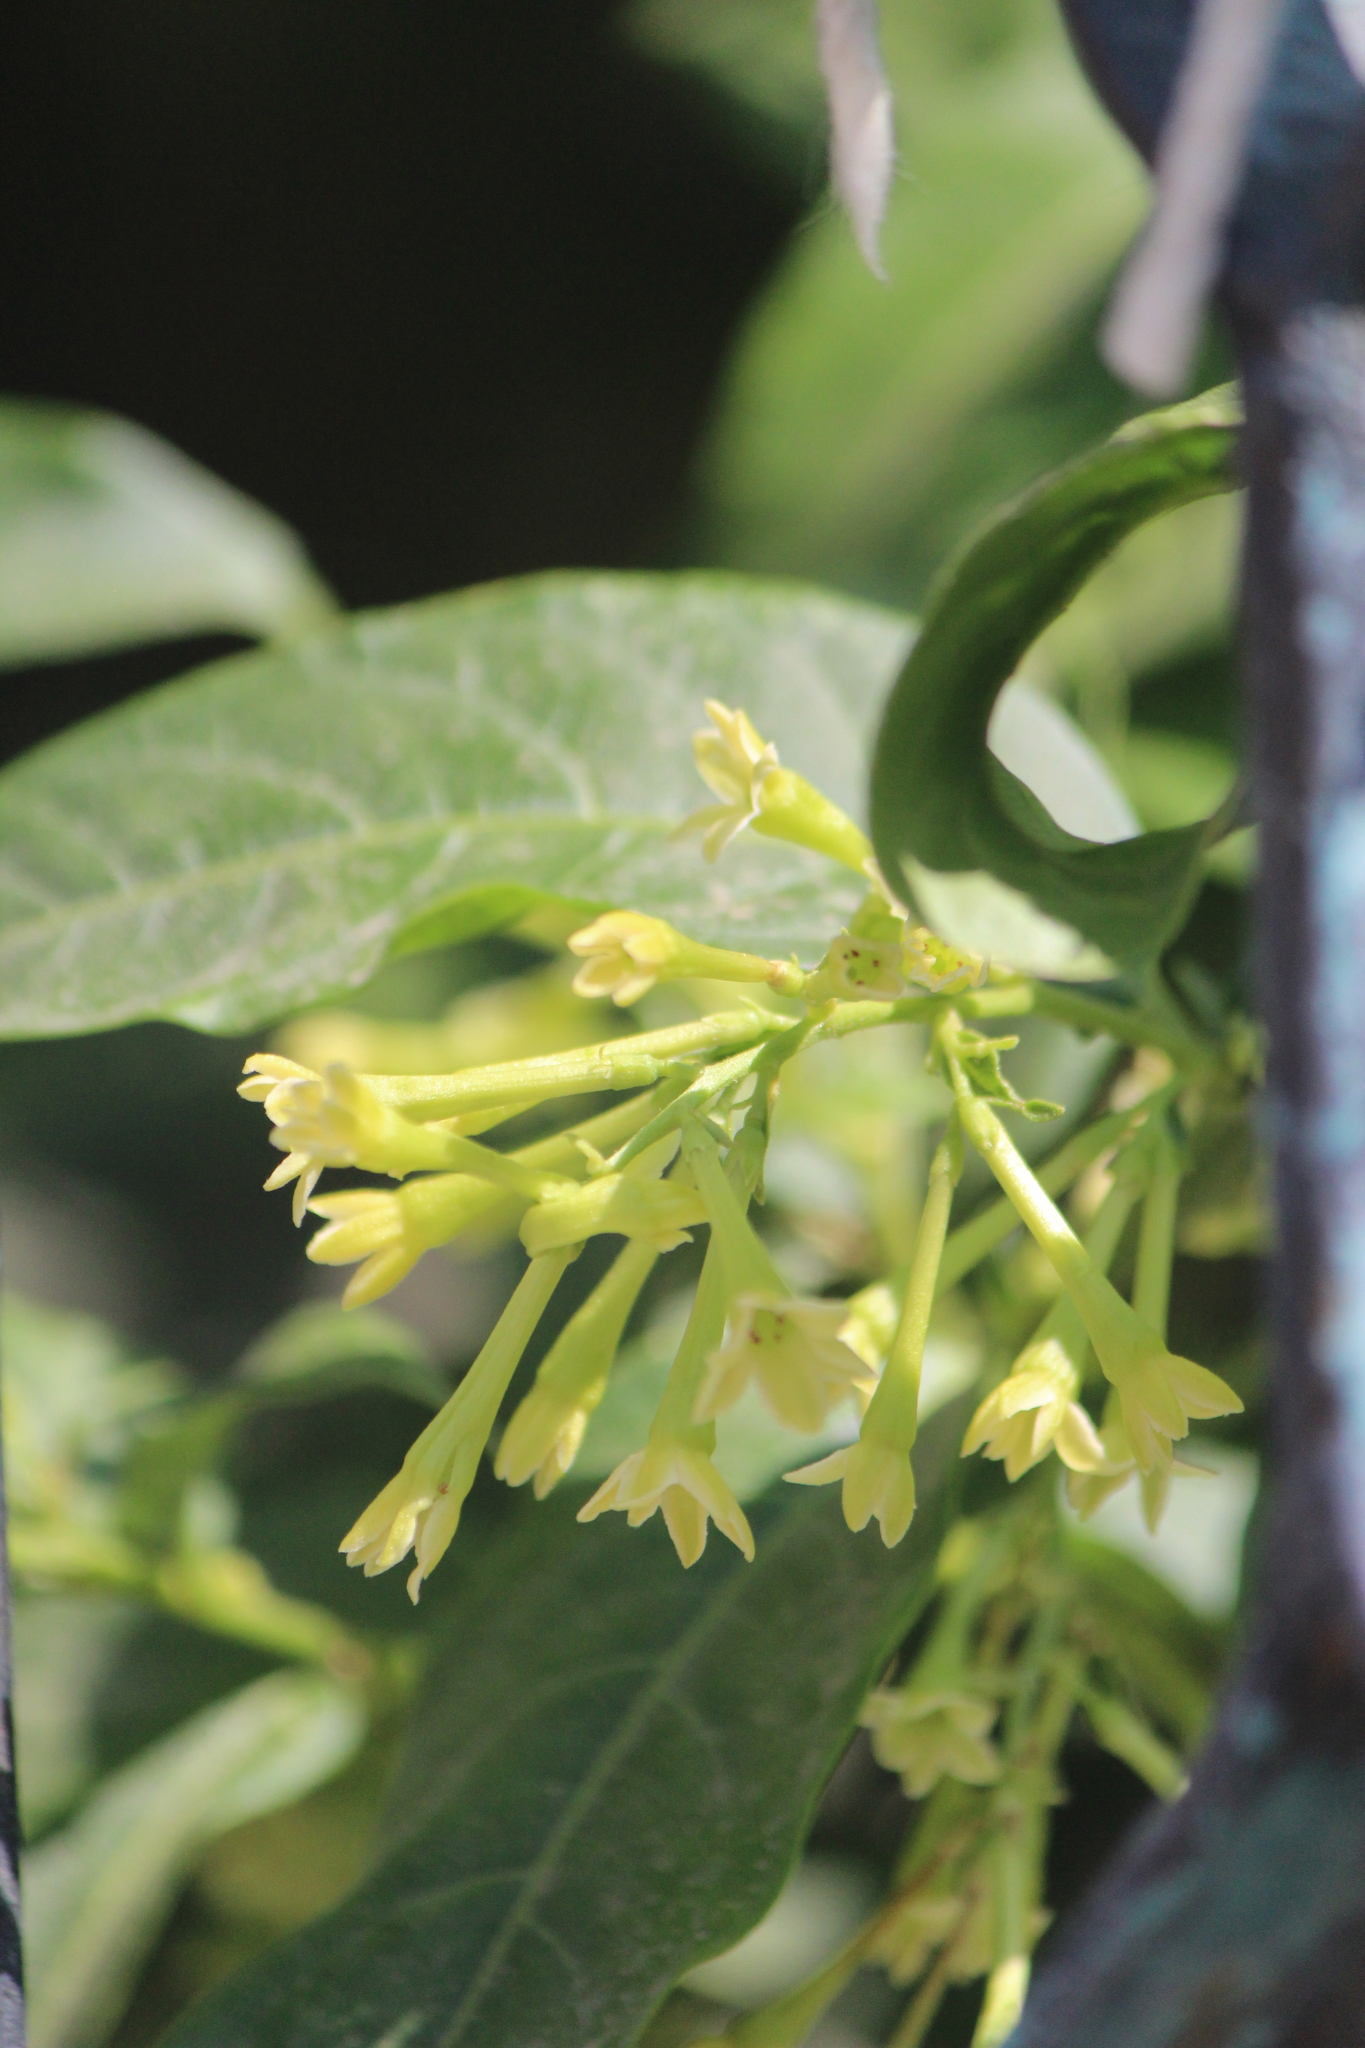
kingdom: Plantae
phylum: Tracheophyta
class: Magnoliopsida
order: Solanales
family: Solanaceae
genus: Cestrum
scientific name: Cestrum glanduliferum
